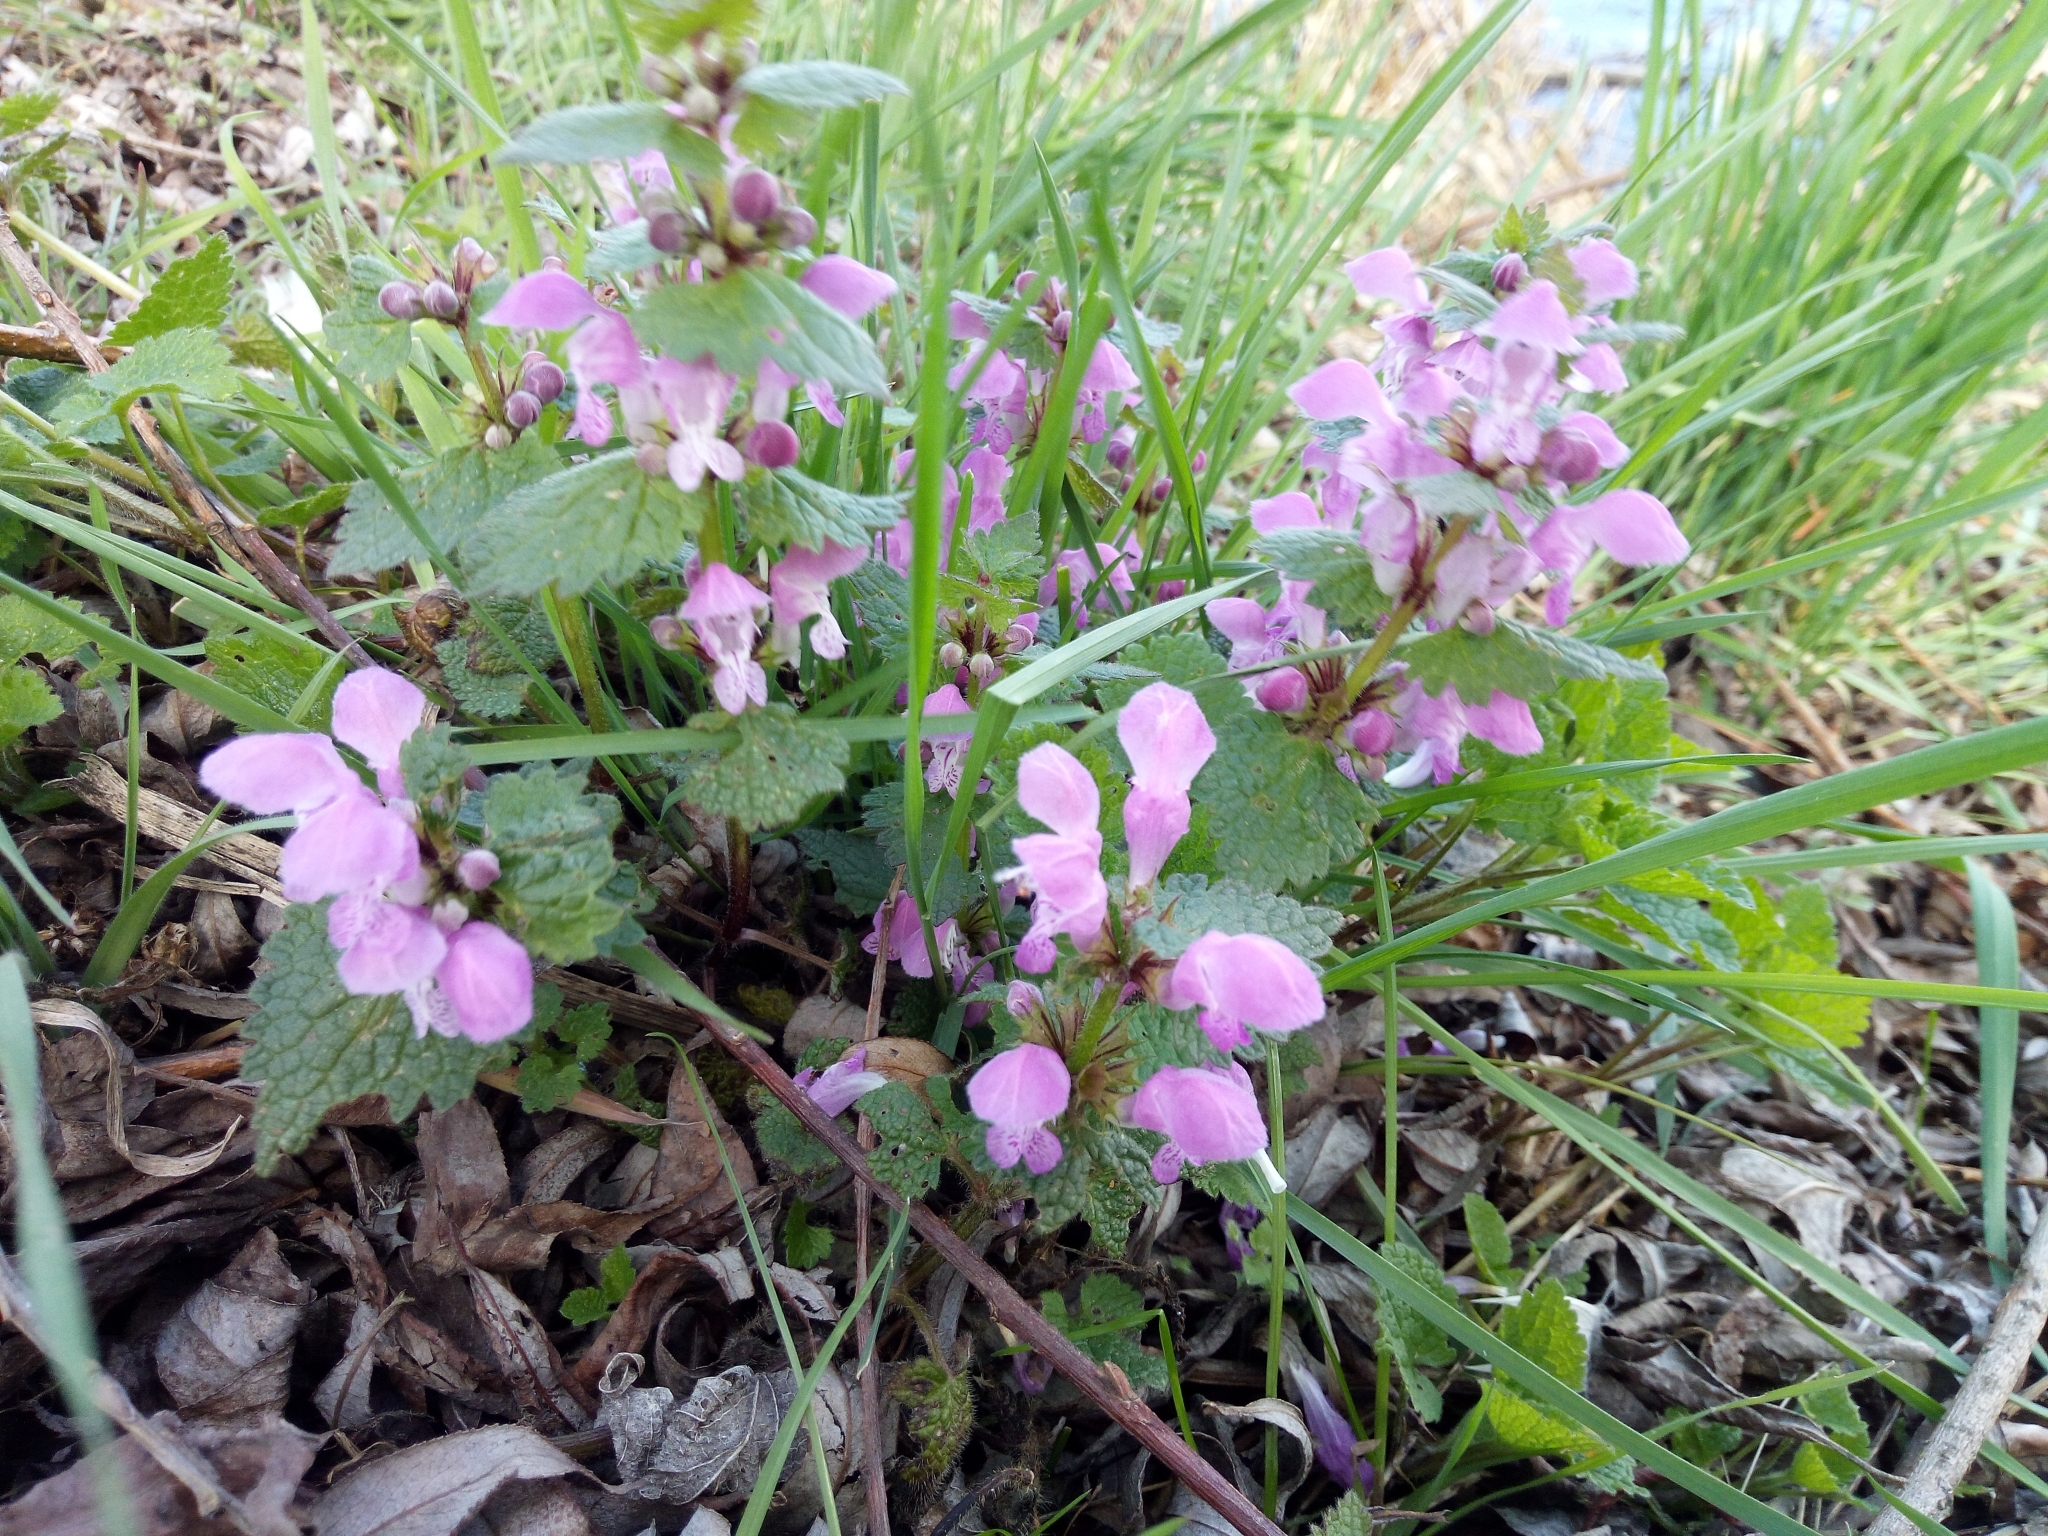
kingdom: Plantae
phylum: Tracheophyta
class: Magnoliopsida
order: Lamiales
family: Lamiaceae
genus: Lamium
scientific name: Lamium maculatum
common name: Spotted dead-nettle
